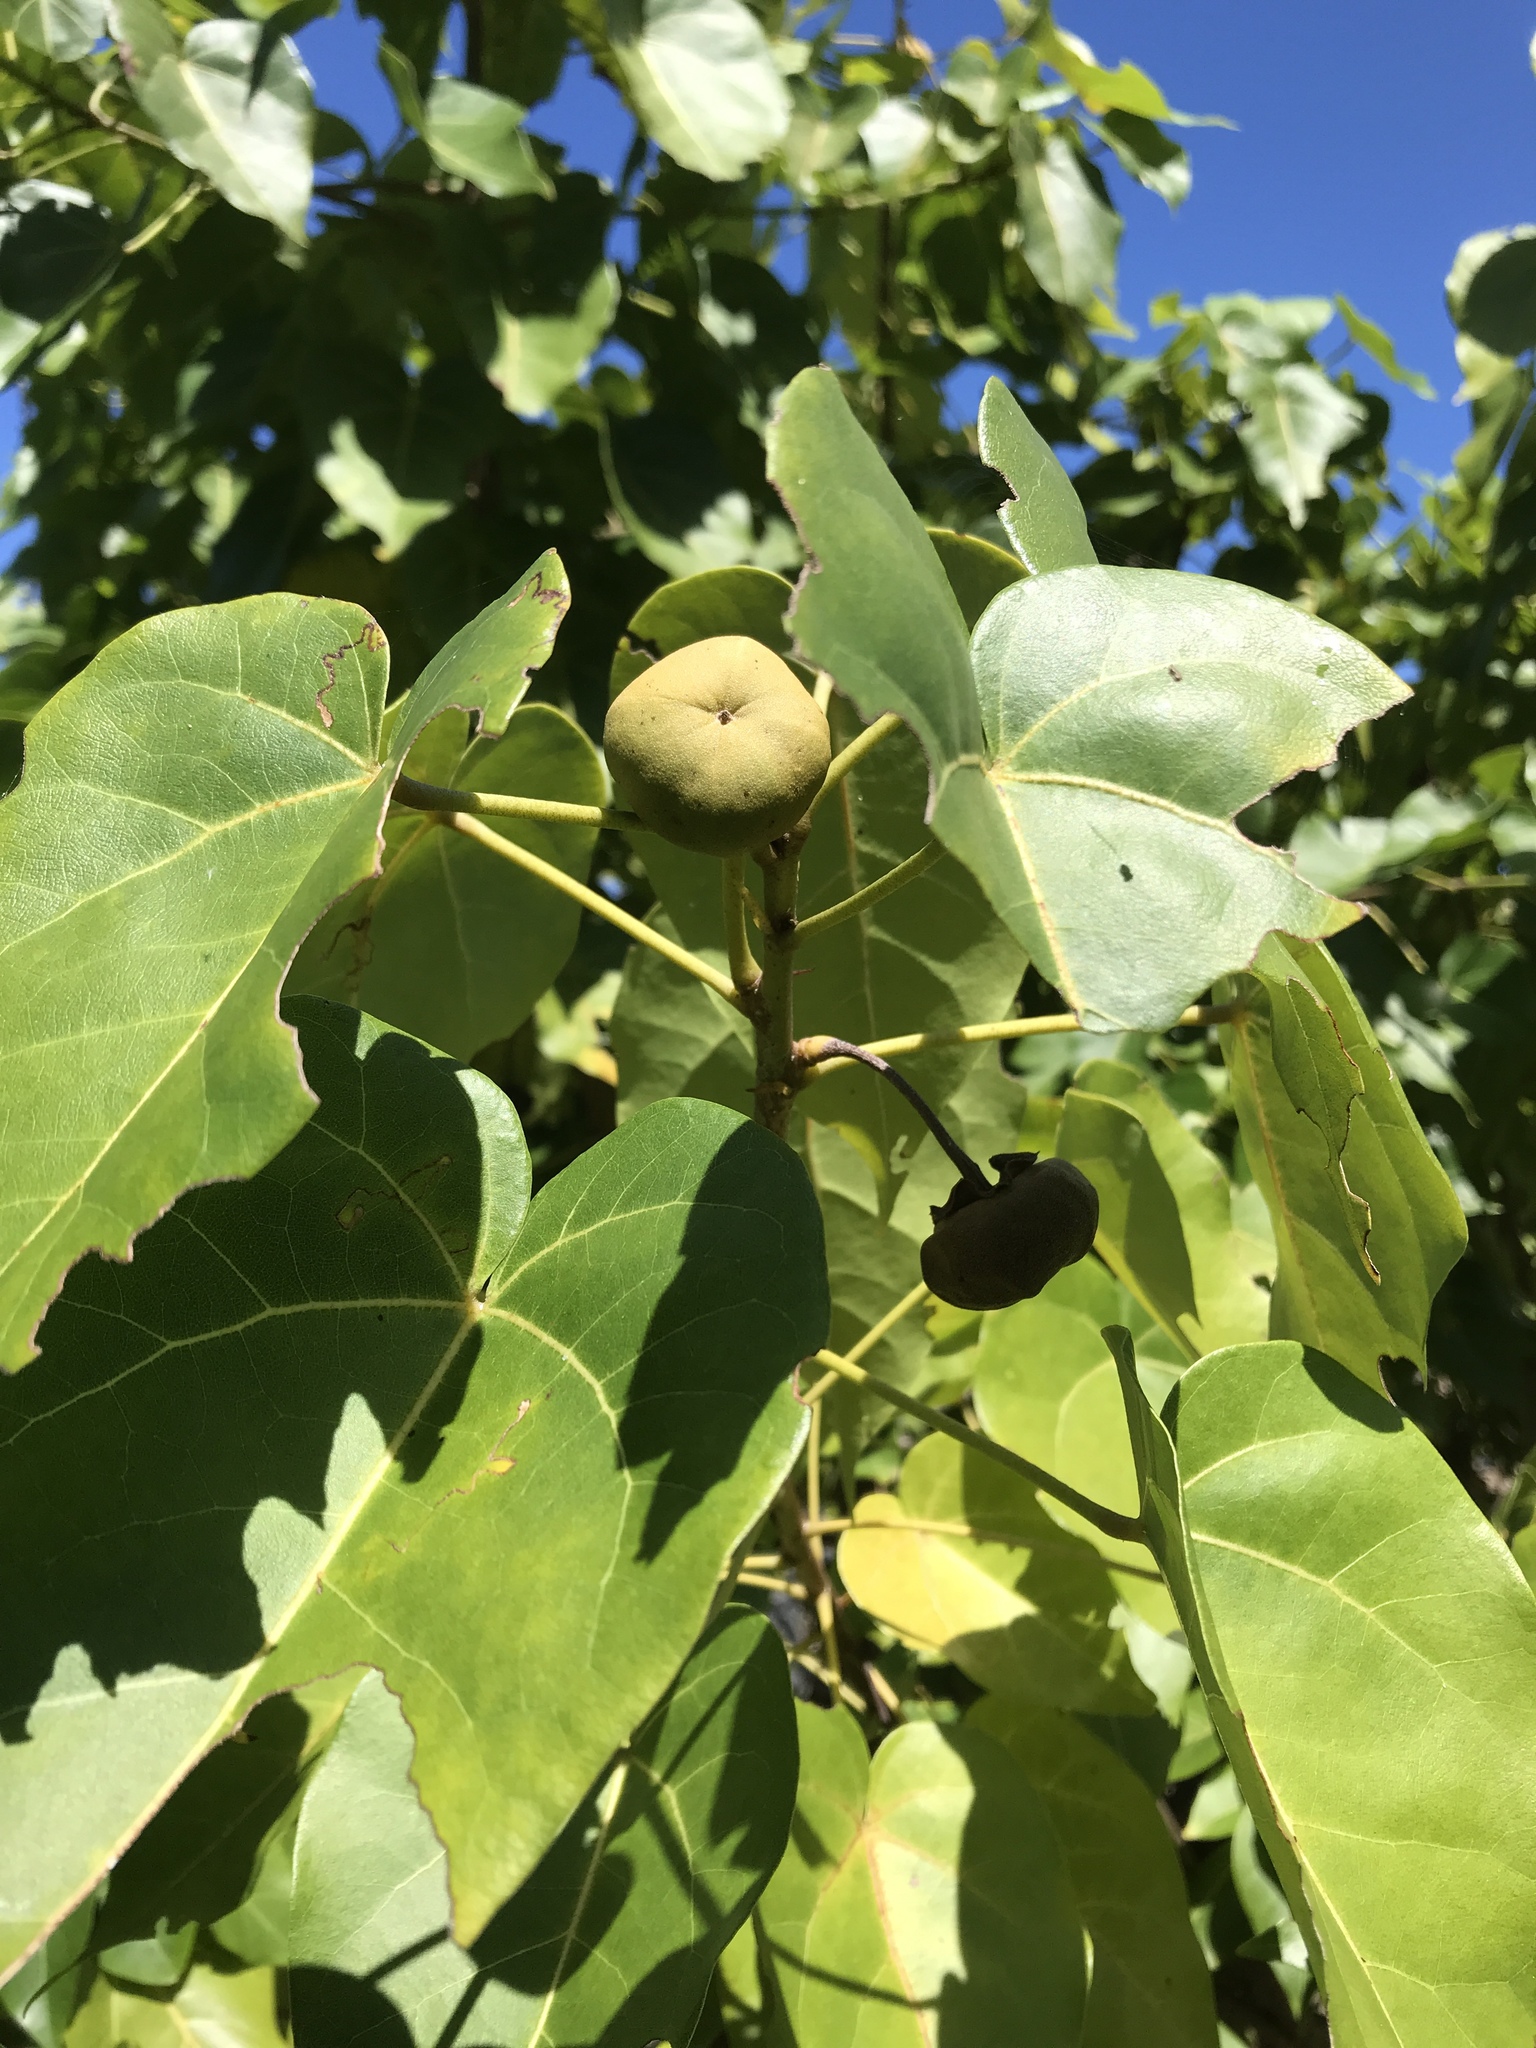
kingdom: Plantae
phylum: Tracheophyta
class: Magnoliopsida
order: Malvales
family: Malvaceae
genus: Thespesia
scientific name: Thespesia populnea
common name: Seaside mahoe
